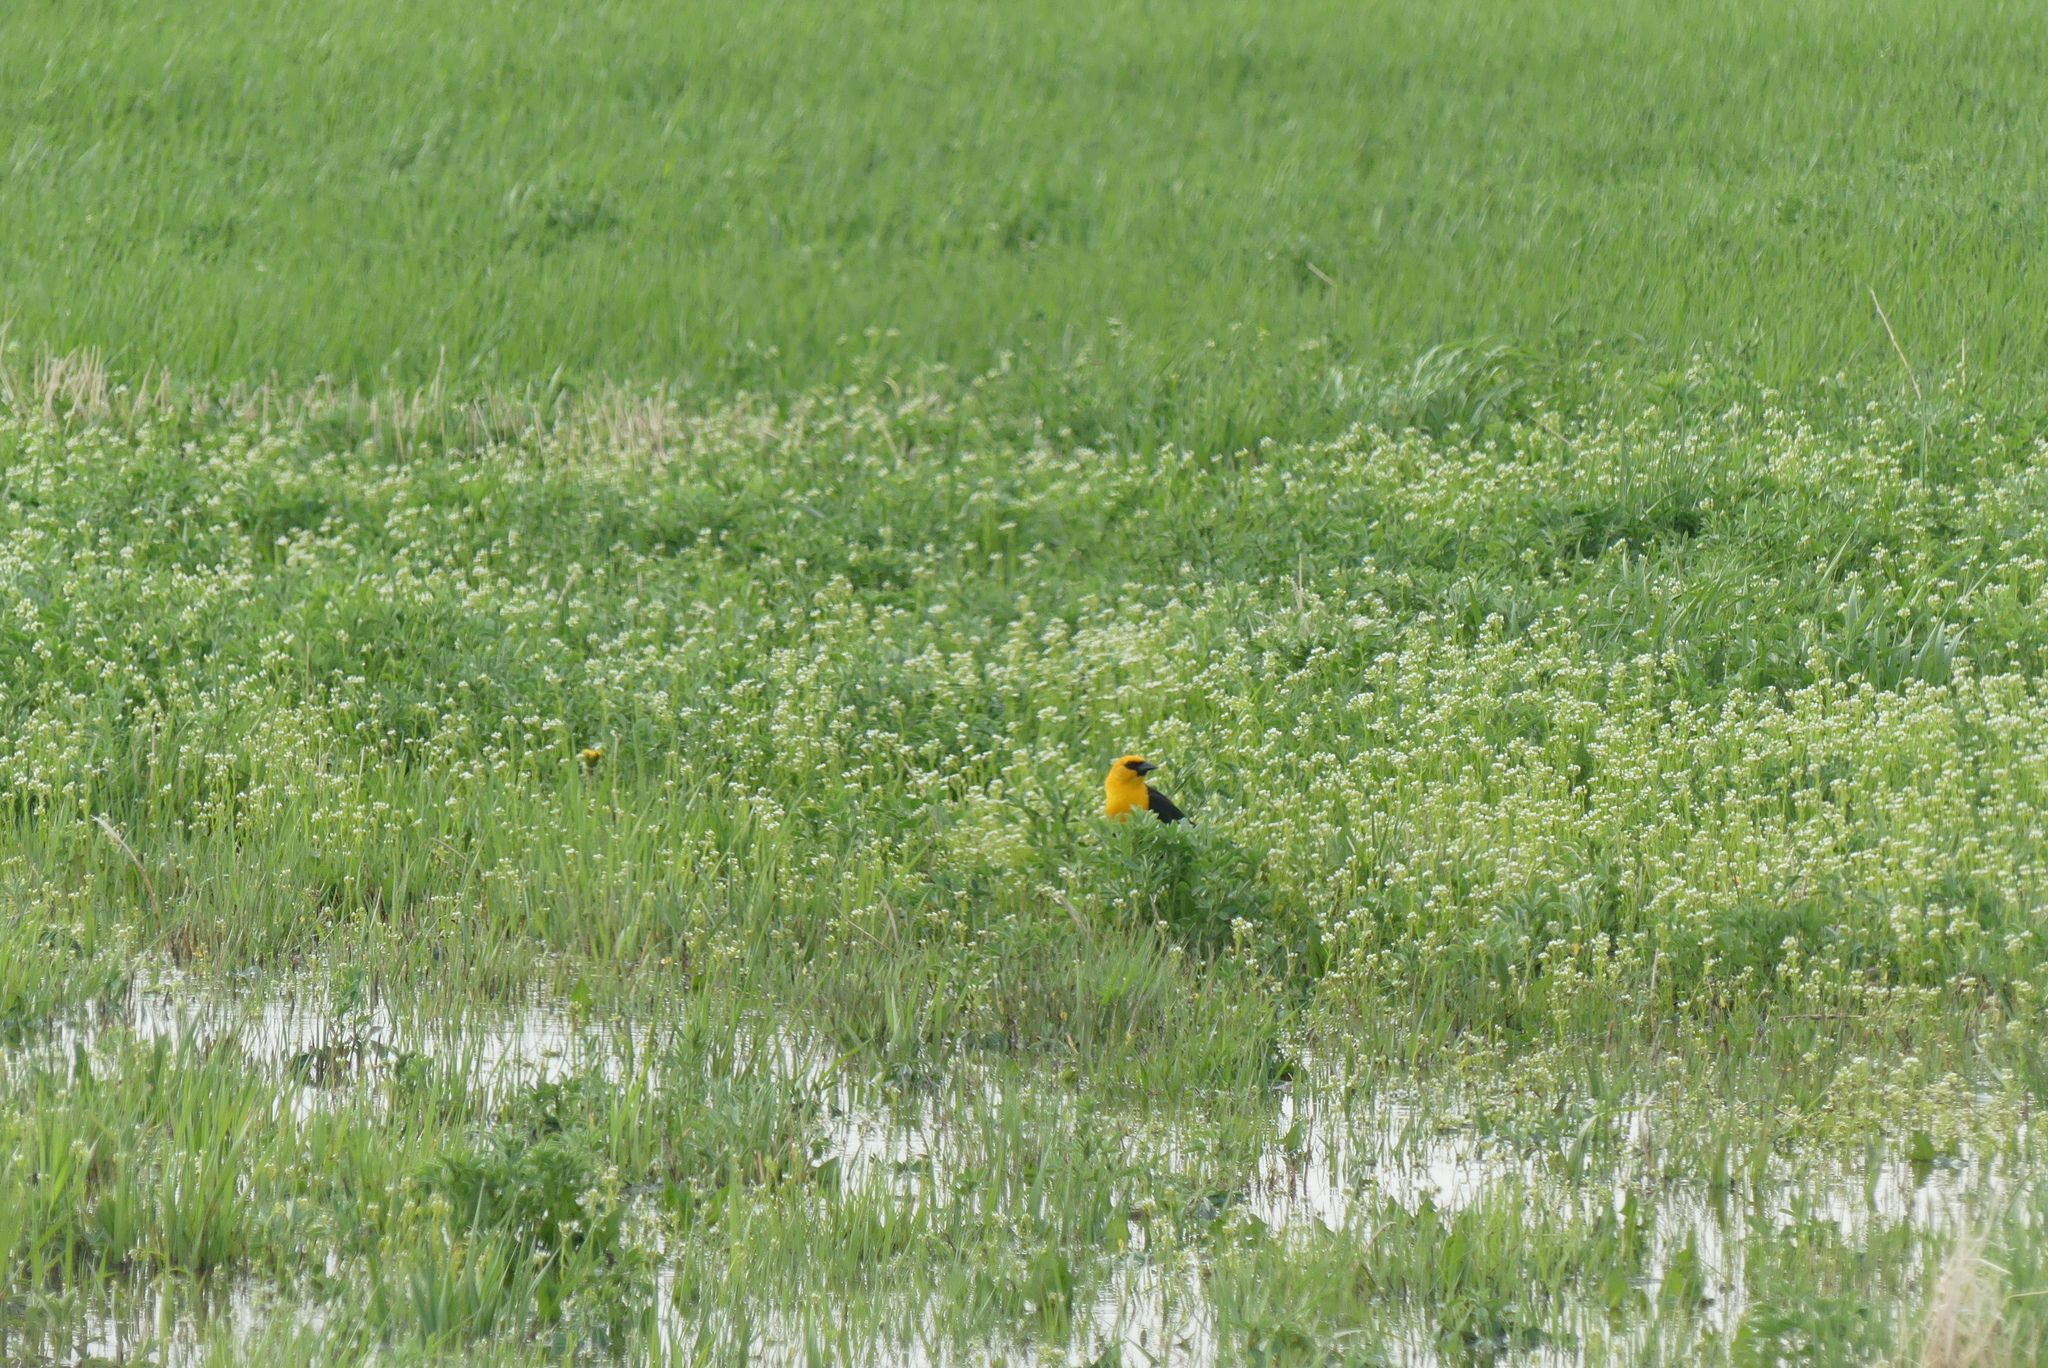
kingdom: Animalia
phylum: Chordata
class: Aves
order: Passeriformes
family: Icteridae
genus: Xanthocephalus
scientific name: Xanthocephalus xanthocephalus
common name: Yellow-headed blackbird
